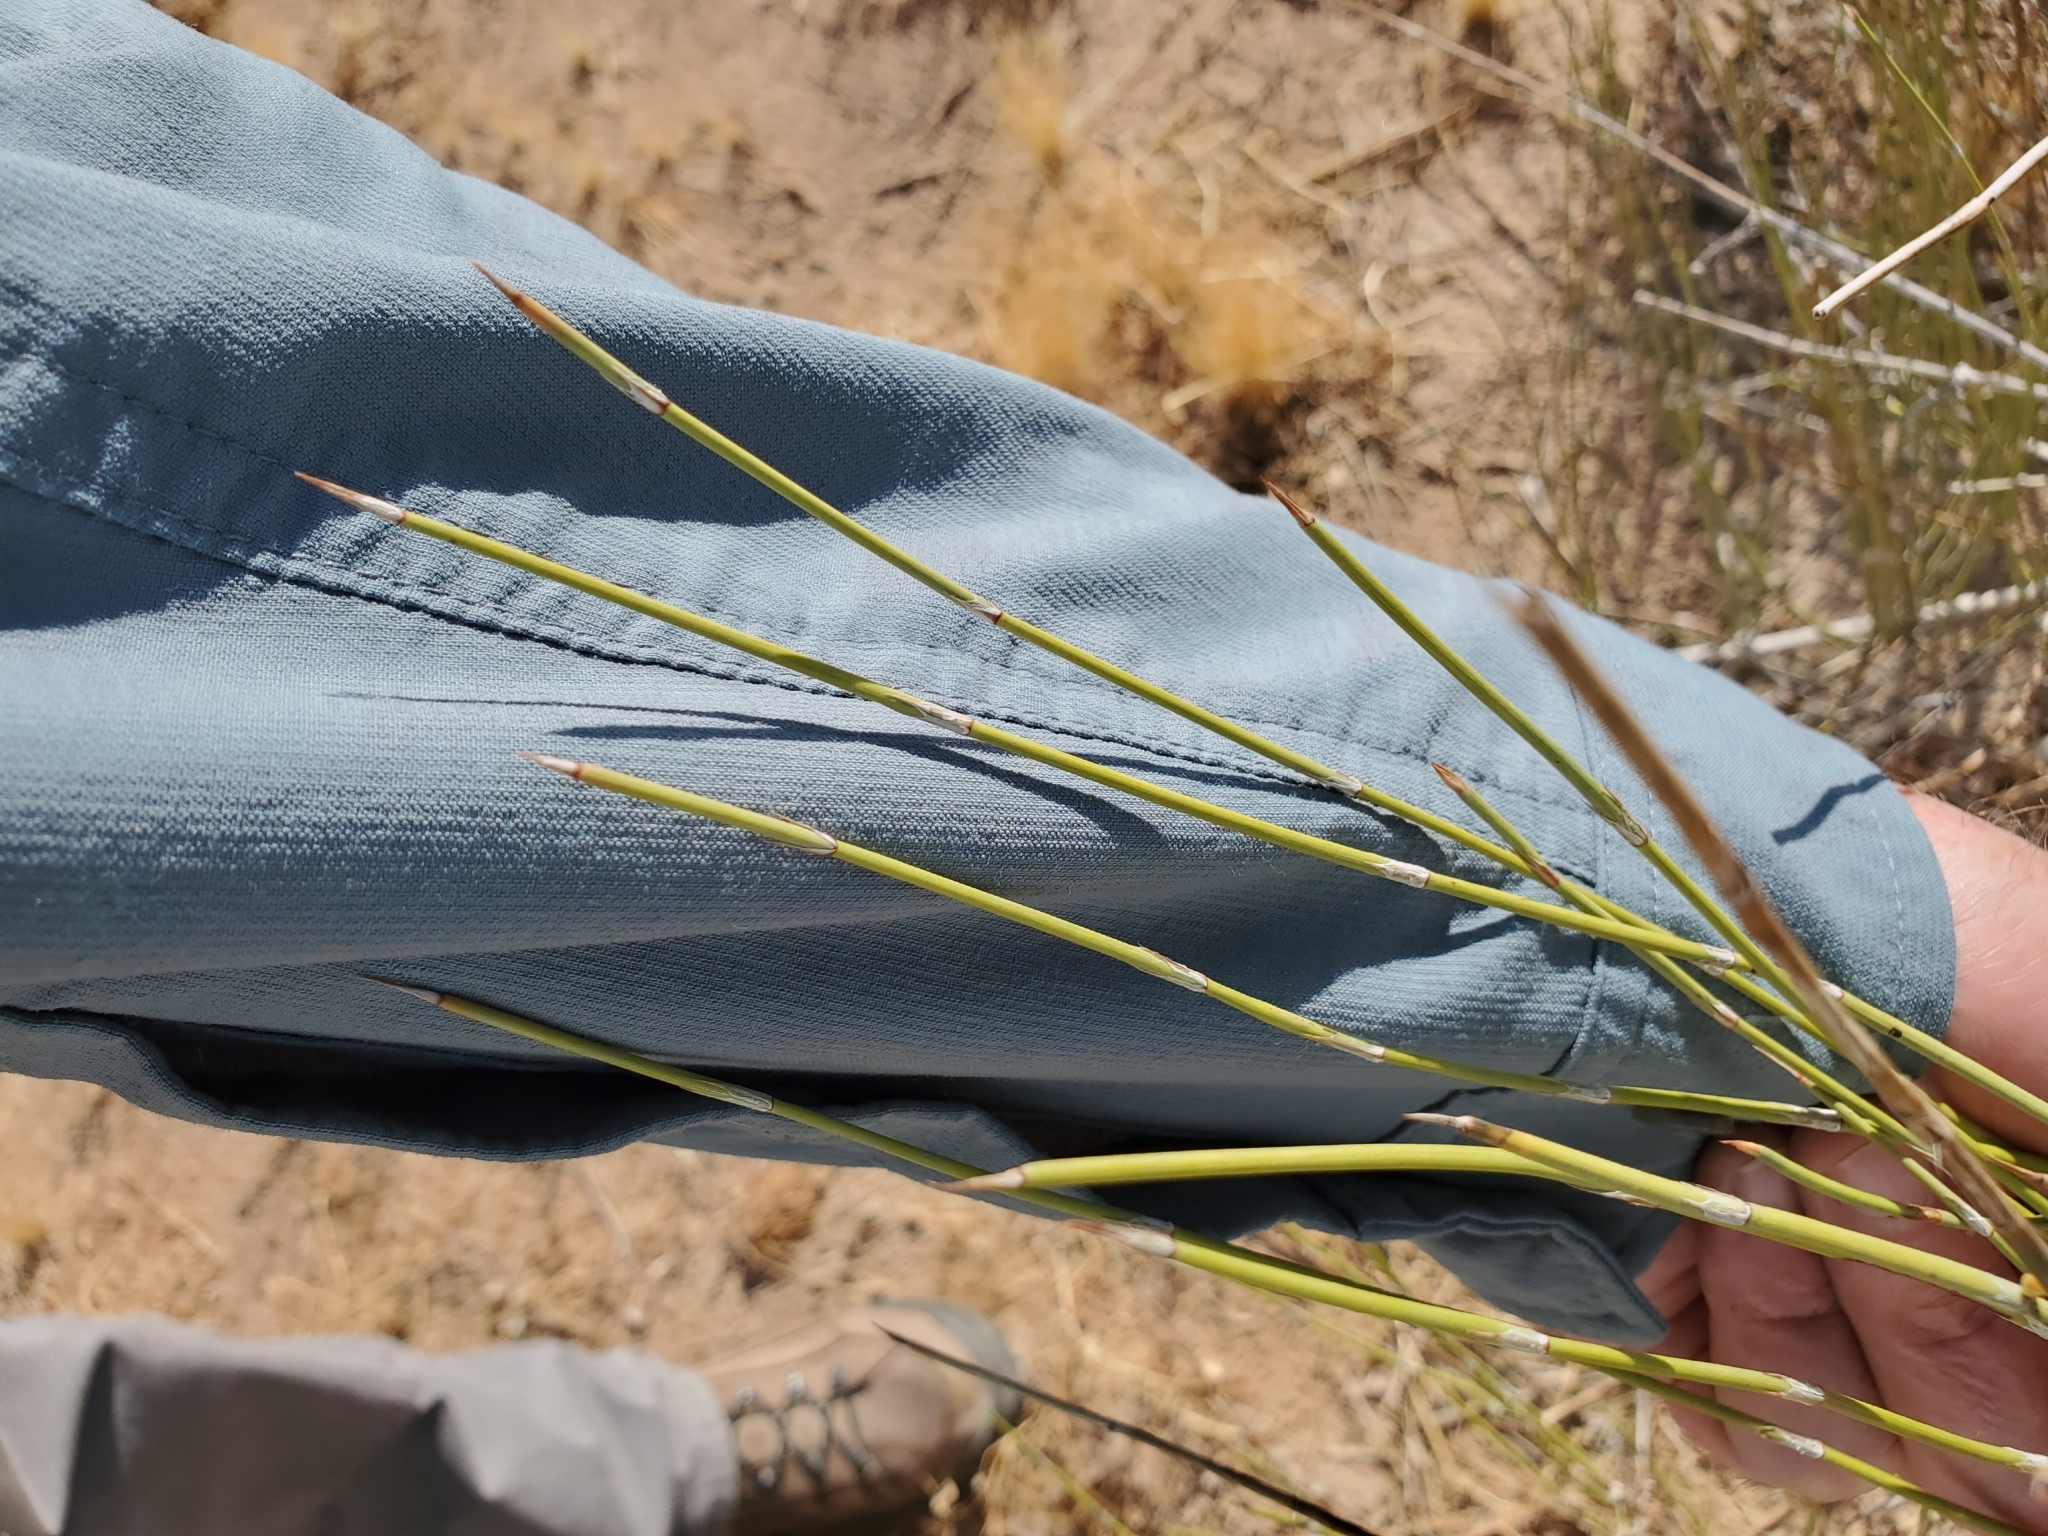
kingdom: Plantae
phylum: Tracheophyta
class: Gnetopsida
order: Ephedrales
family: Ephedraceae
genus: Ephedra
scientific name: Ephedra trifurca
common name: Mexican-tea
